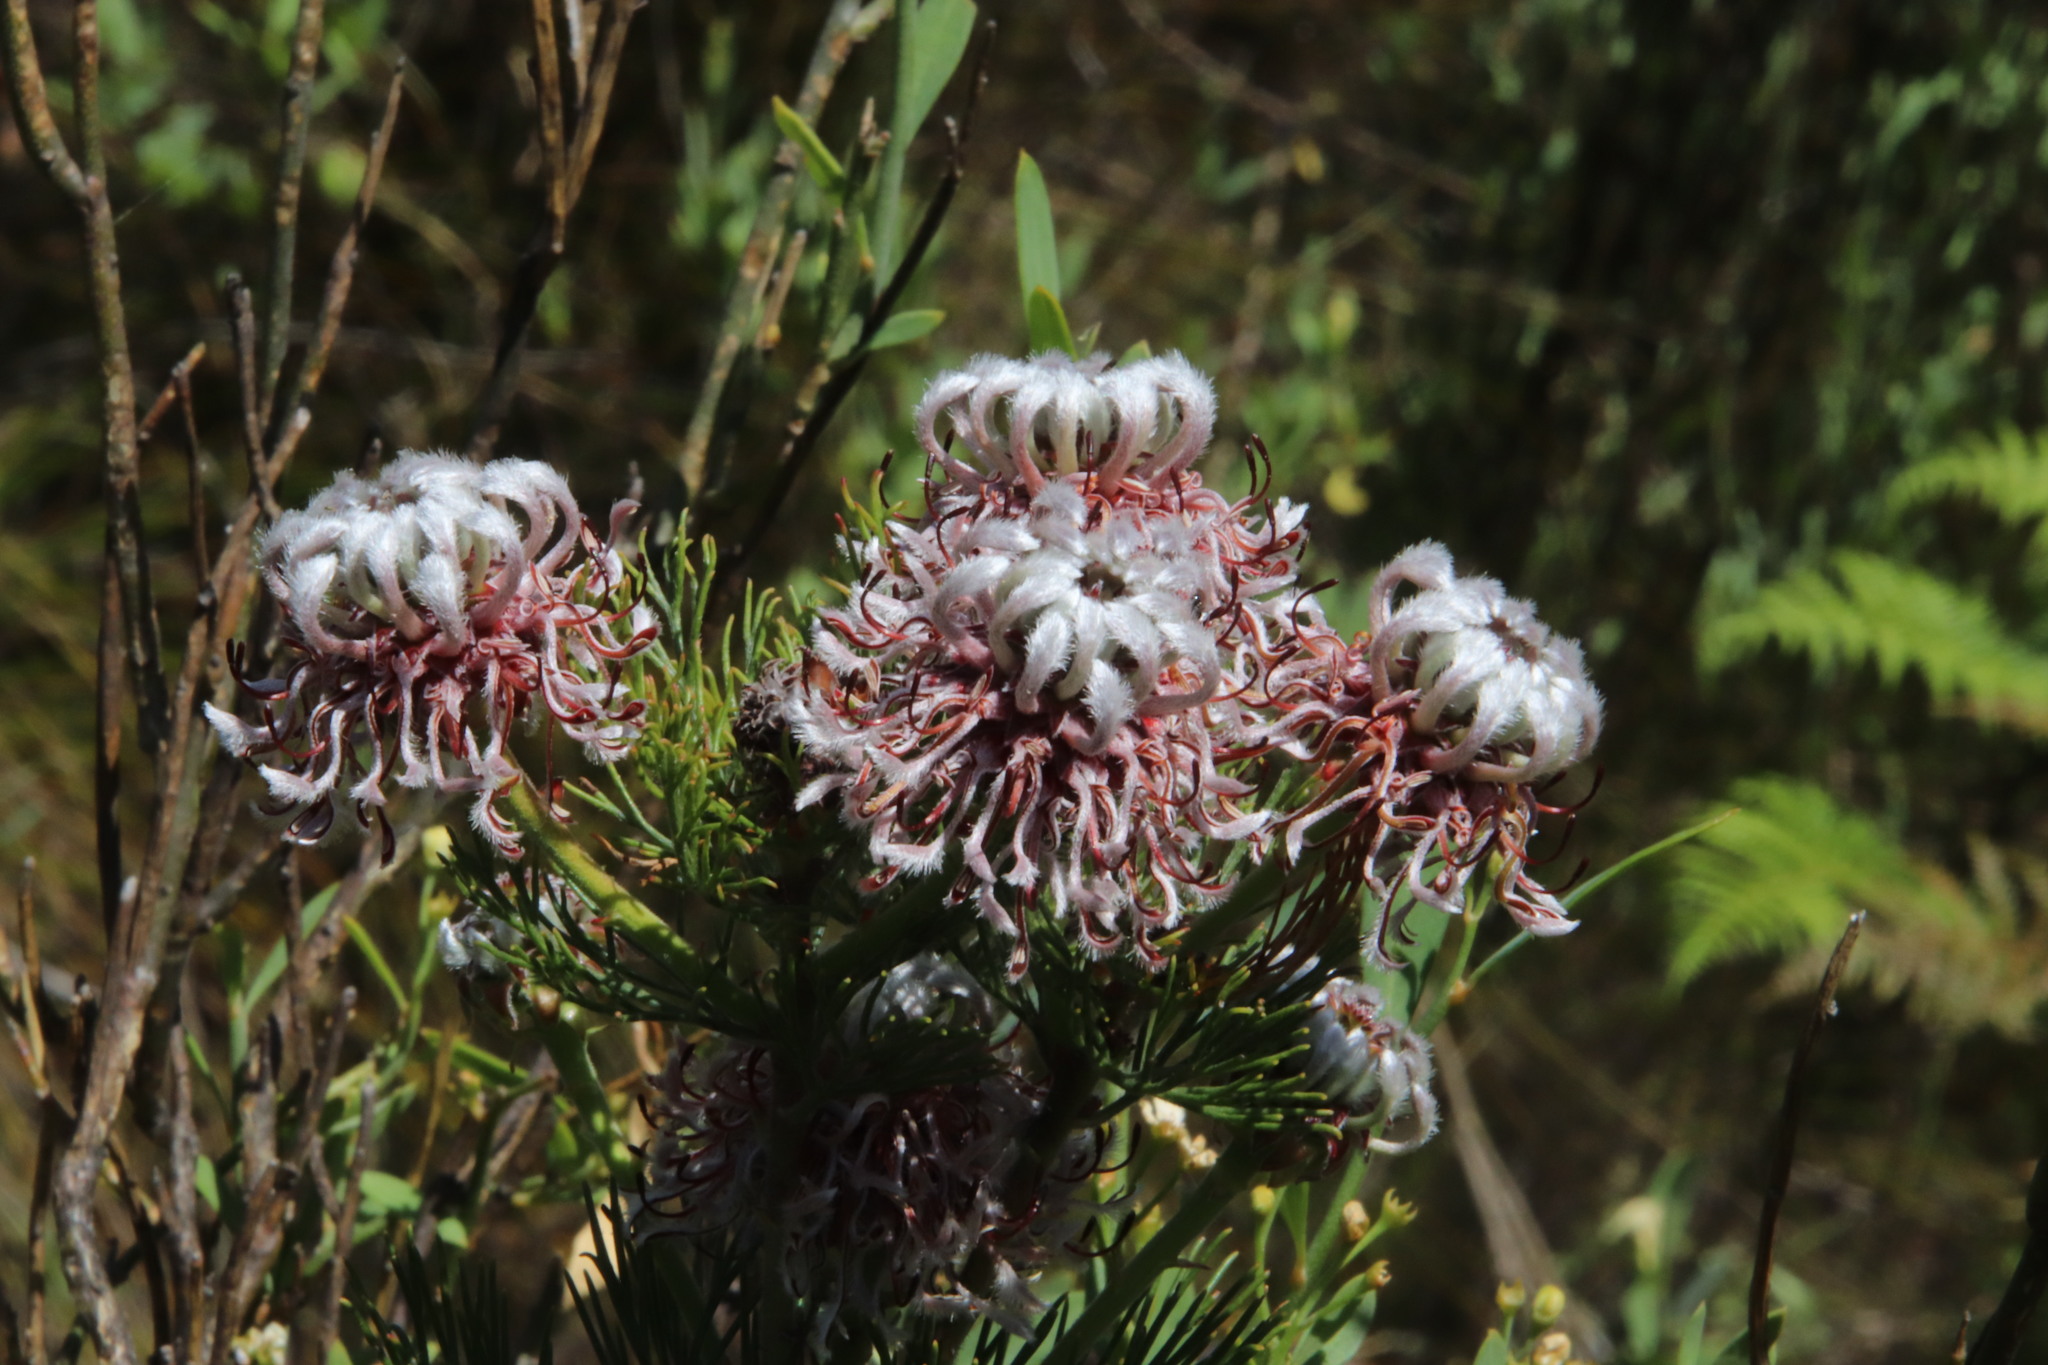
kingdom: Plantae
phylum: Tracheophyta
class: Magnoliopsida
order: Proteales
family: Proteaceae
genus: Serruria
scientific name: Serruria acrocarpa
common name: Common rootstock spiderhead
